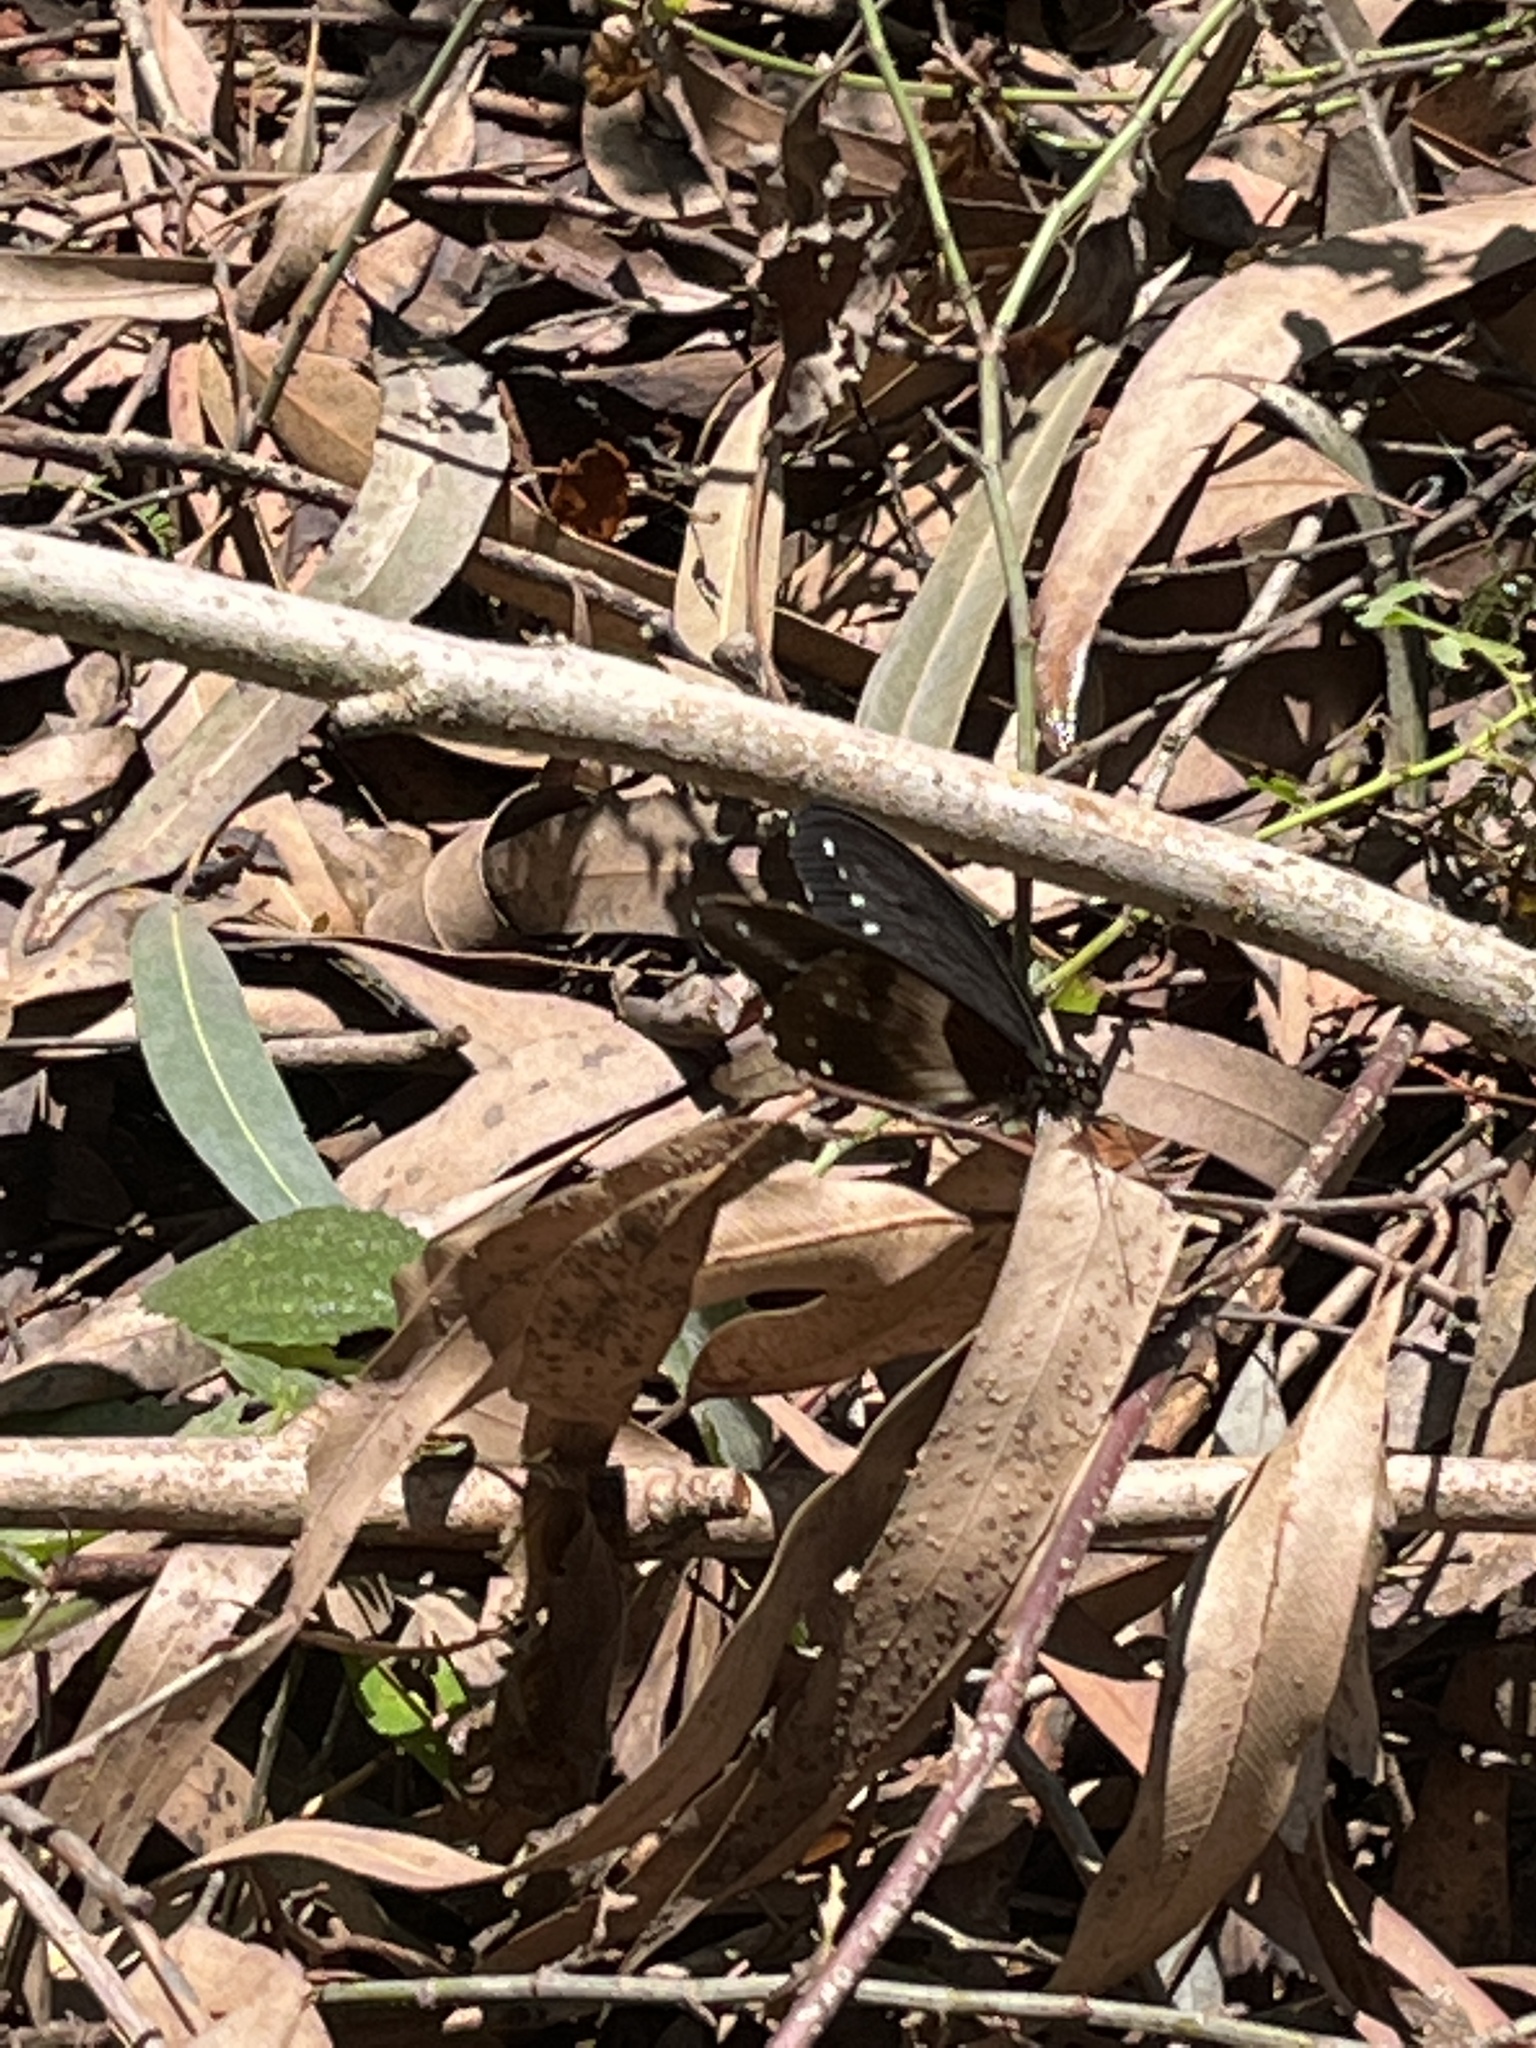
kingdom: Animalia
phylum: Arthropoda
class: Insecta
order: Lepidoptera
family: Papilionidae
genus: Papilio
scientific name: Papilio jacksoni
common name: Jackson's swallowtail
